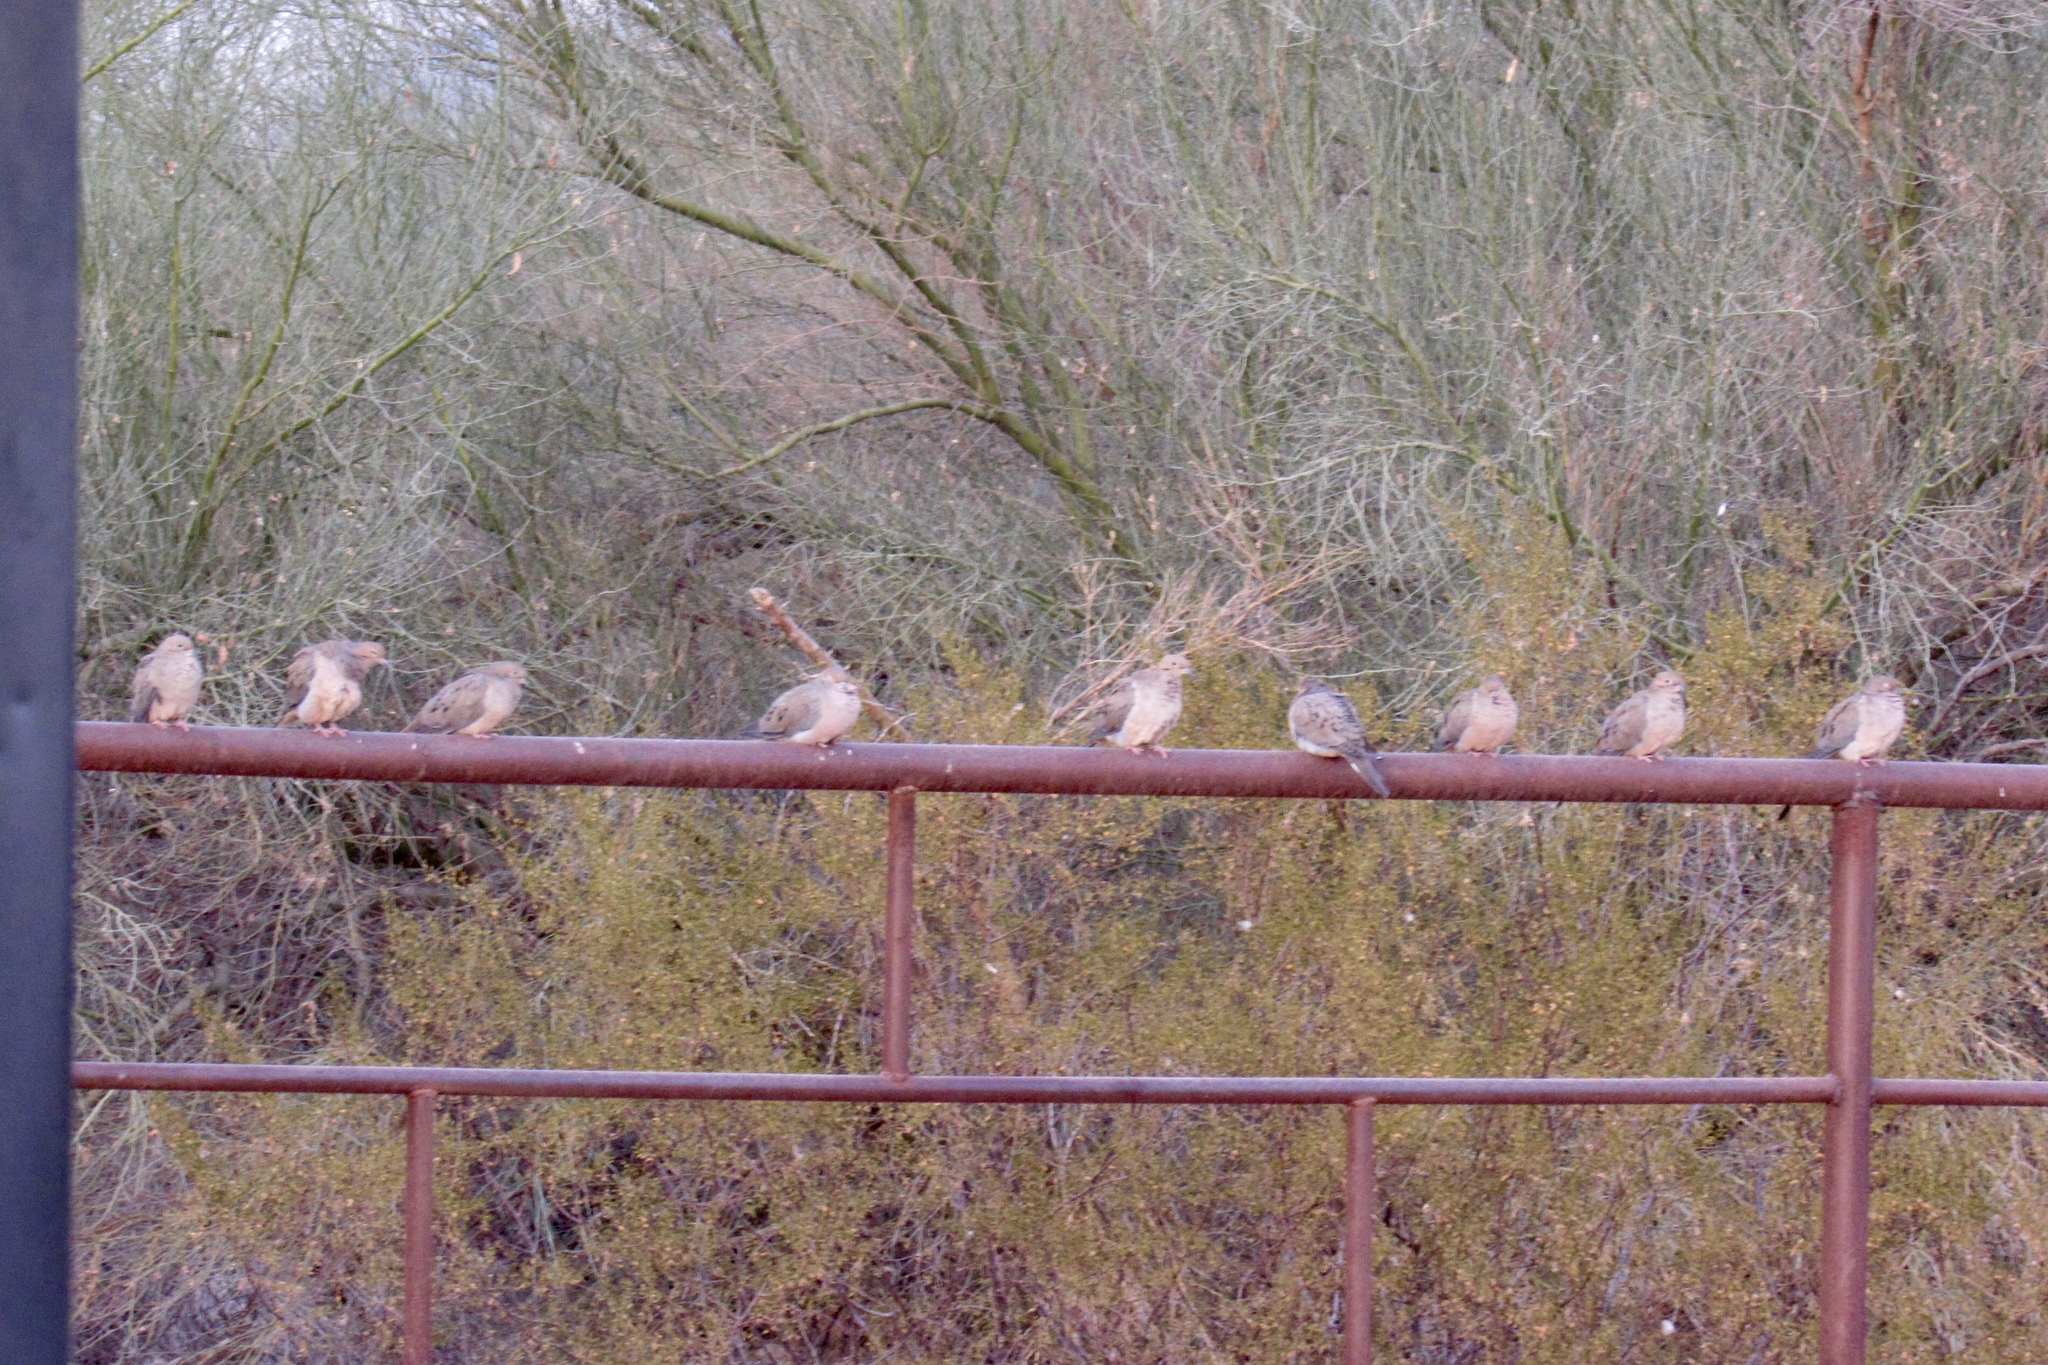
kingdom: Animalia
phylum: Chordata
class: Aves
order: Columbiformes
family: Columbidae
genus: Zenaida
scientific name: Zenaida macroura
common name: Mourning dove
